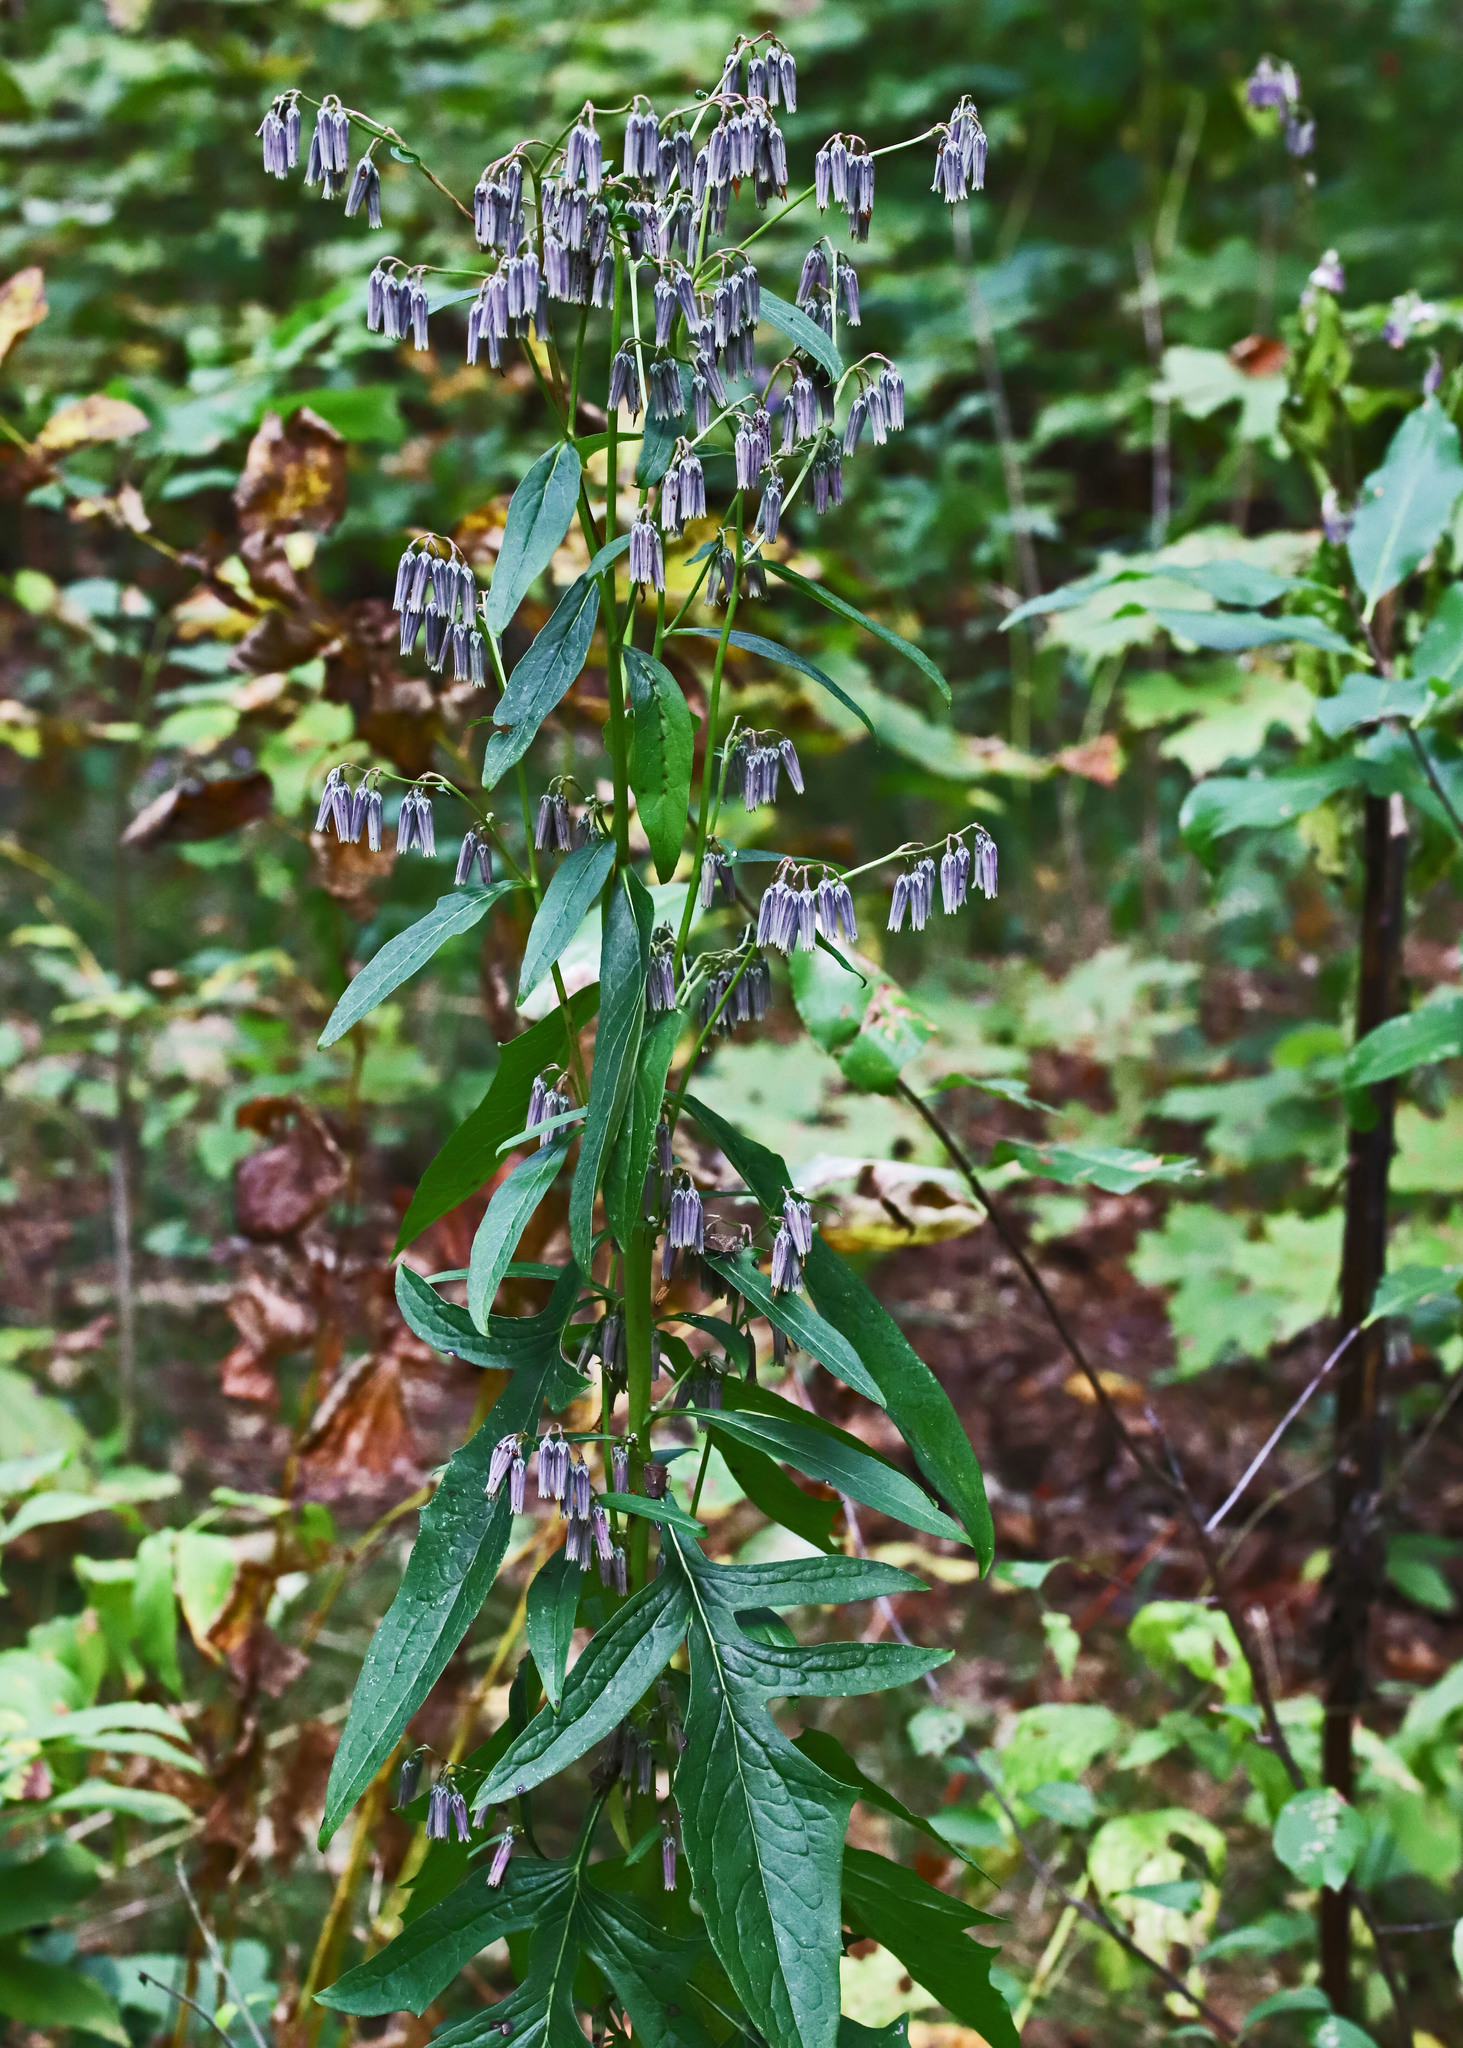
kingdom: Plantae
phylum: Tracheophyta
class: Magnoliopsida
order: Asterales
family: Asteraceae
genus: Nabalus
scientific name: Nabalus albus
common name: White rattlesnakeroot
